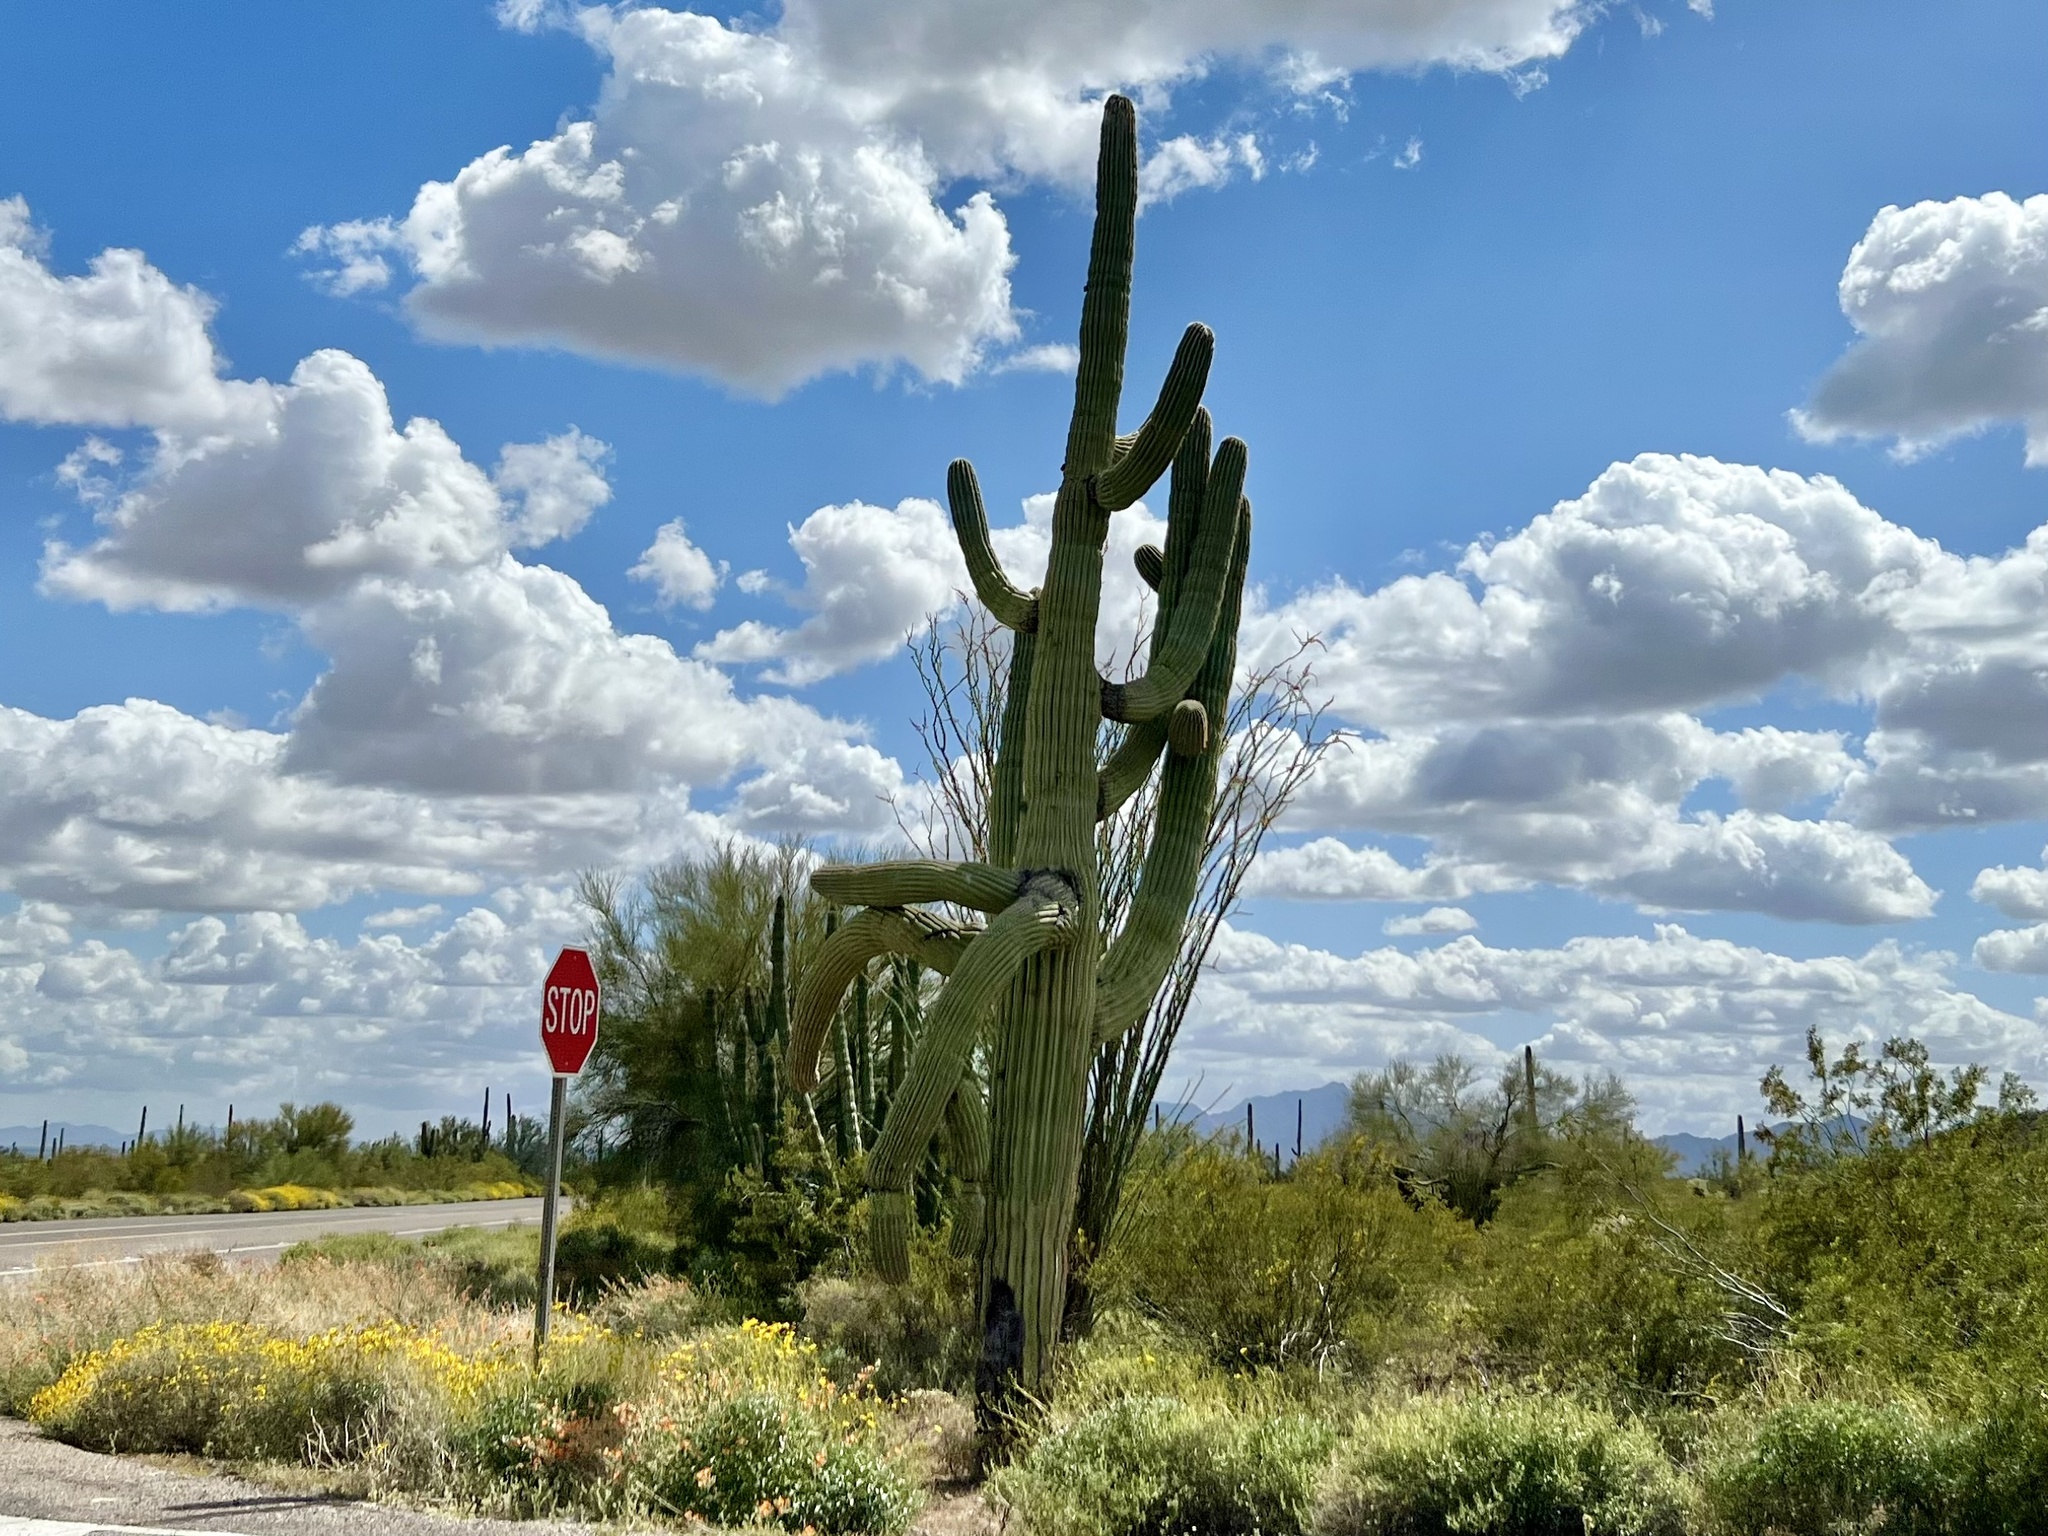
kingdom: Plantae
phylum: Tracheophyta
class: Magnoliopsida
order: Caryophyllales
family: Cactaceae
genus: Carnegiea
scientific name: Carnegiea gigantea
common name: Saguaro
